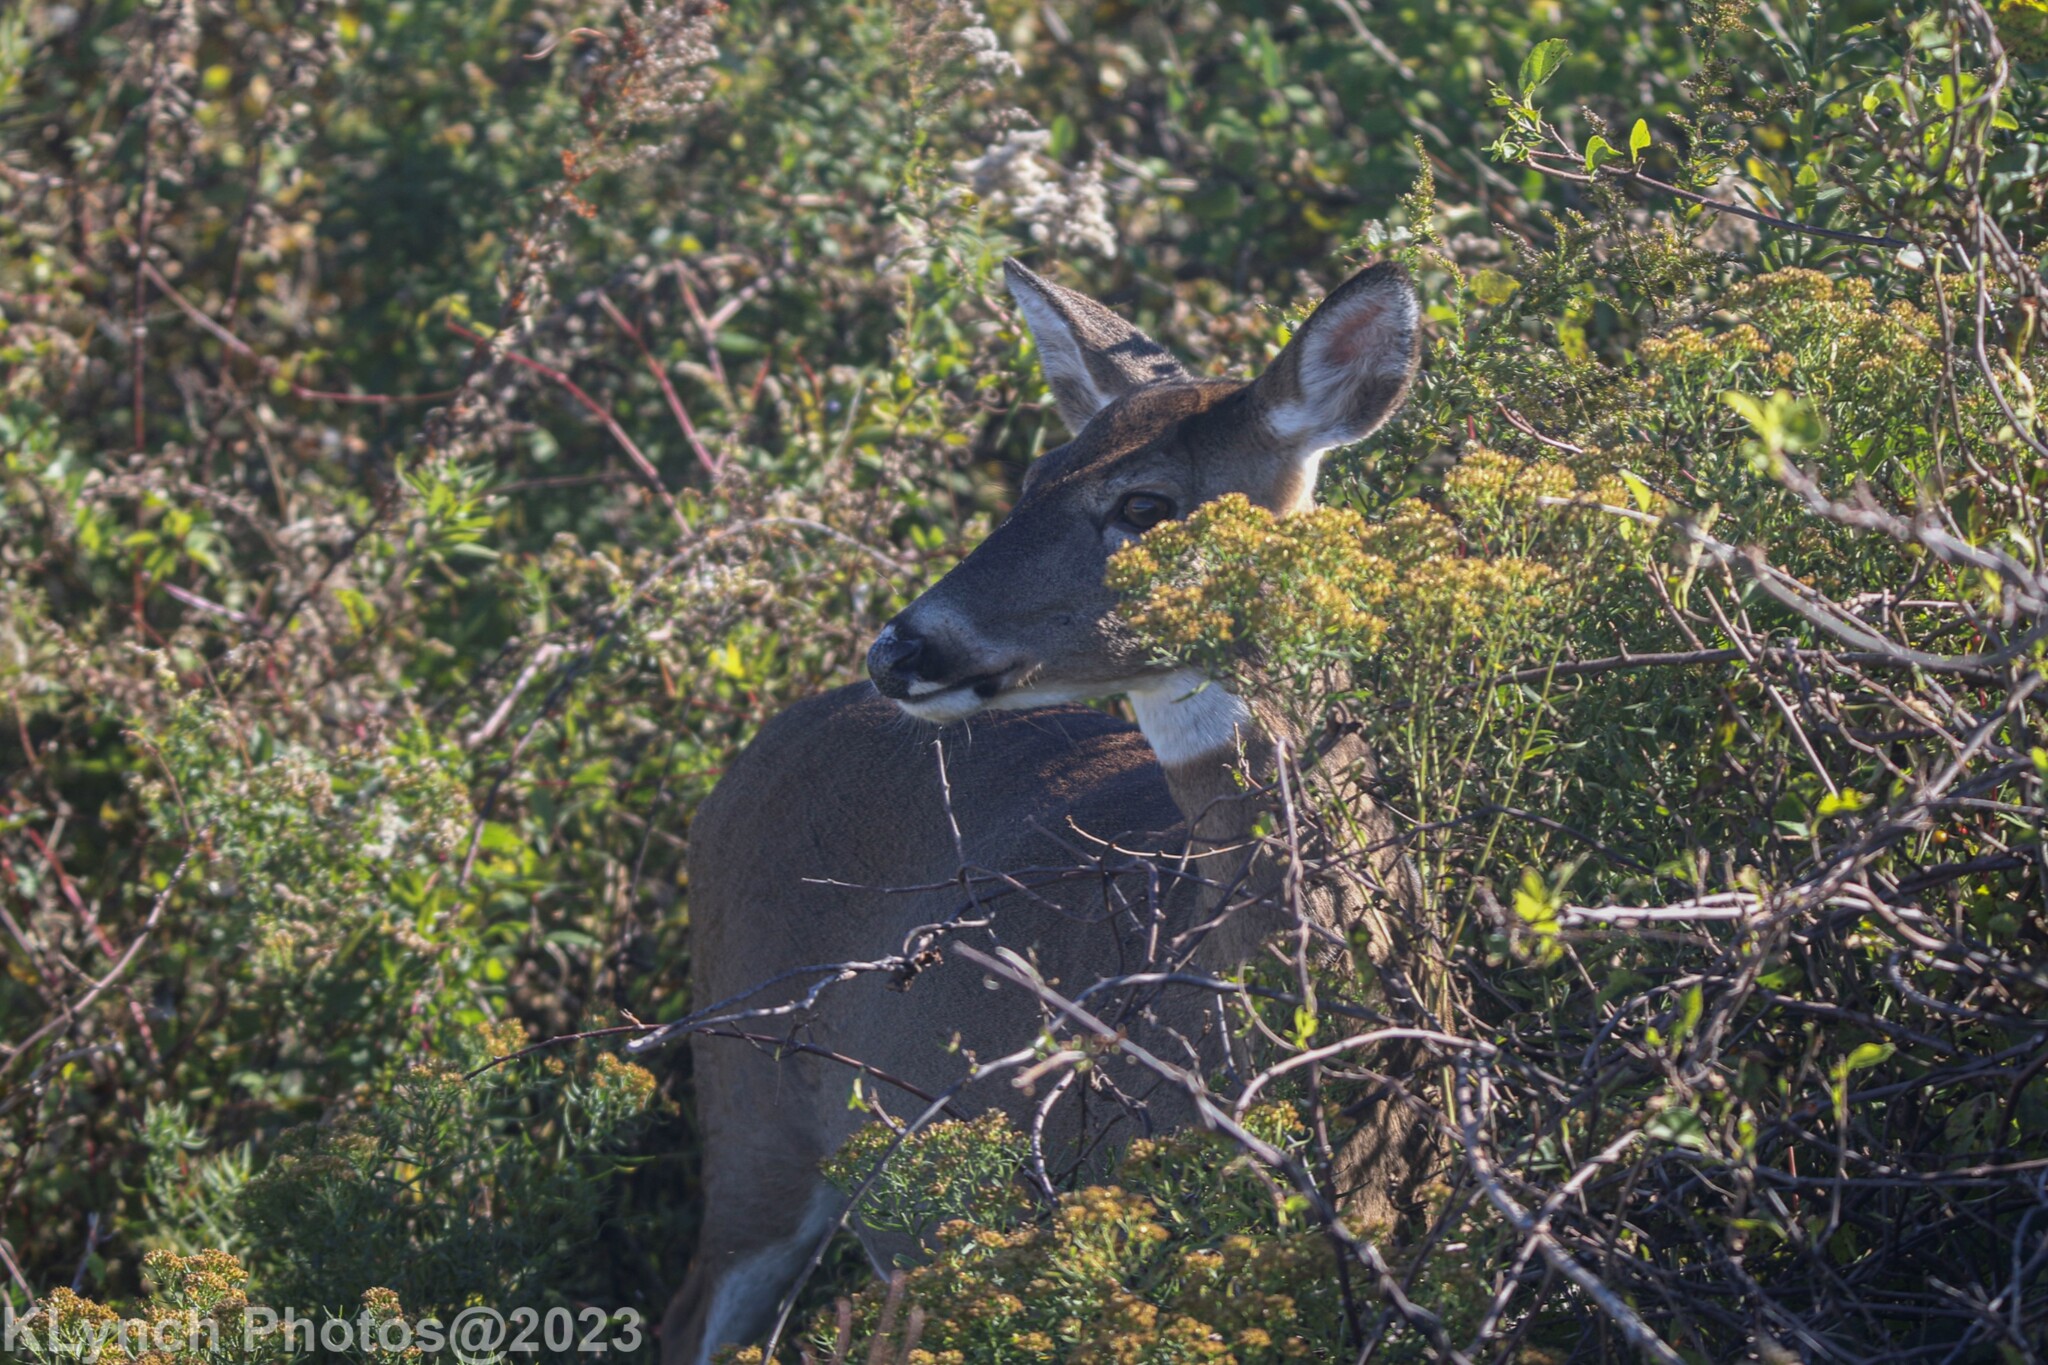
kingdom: Animalia
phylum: Chordata
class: Mammalia
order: Artiodactyla
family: Cervidae
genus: Odocoileus
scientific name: Odocoileus virginianus
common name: White-tailed deer
